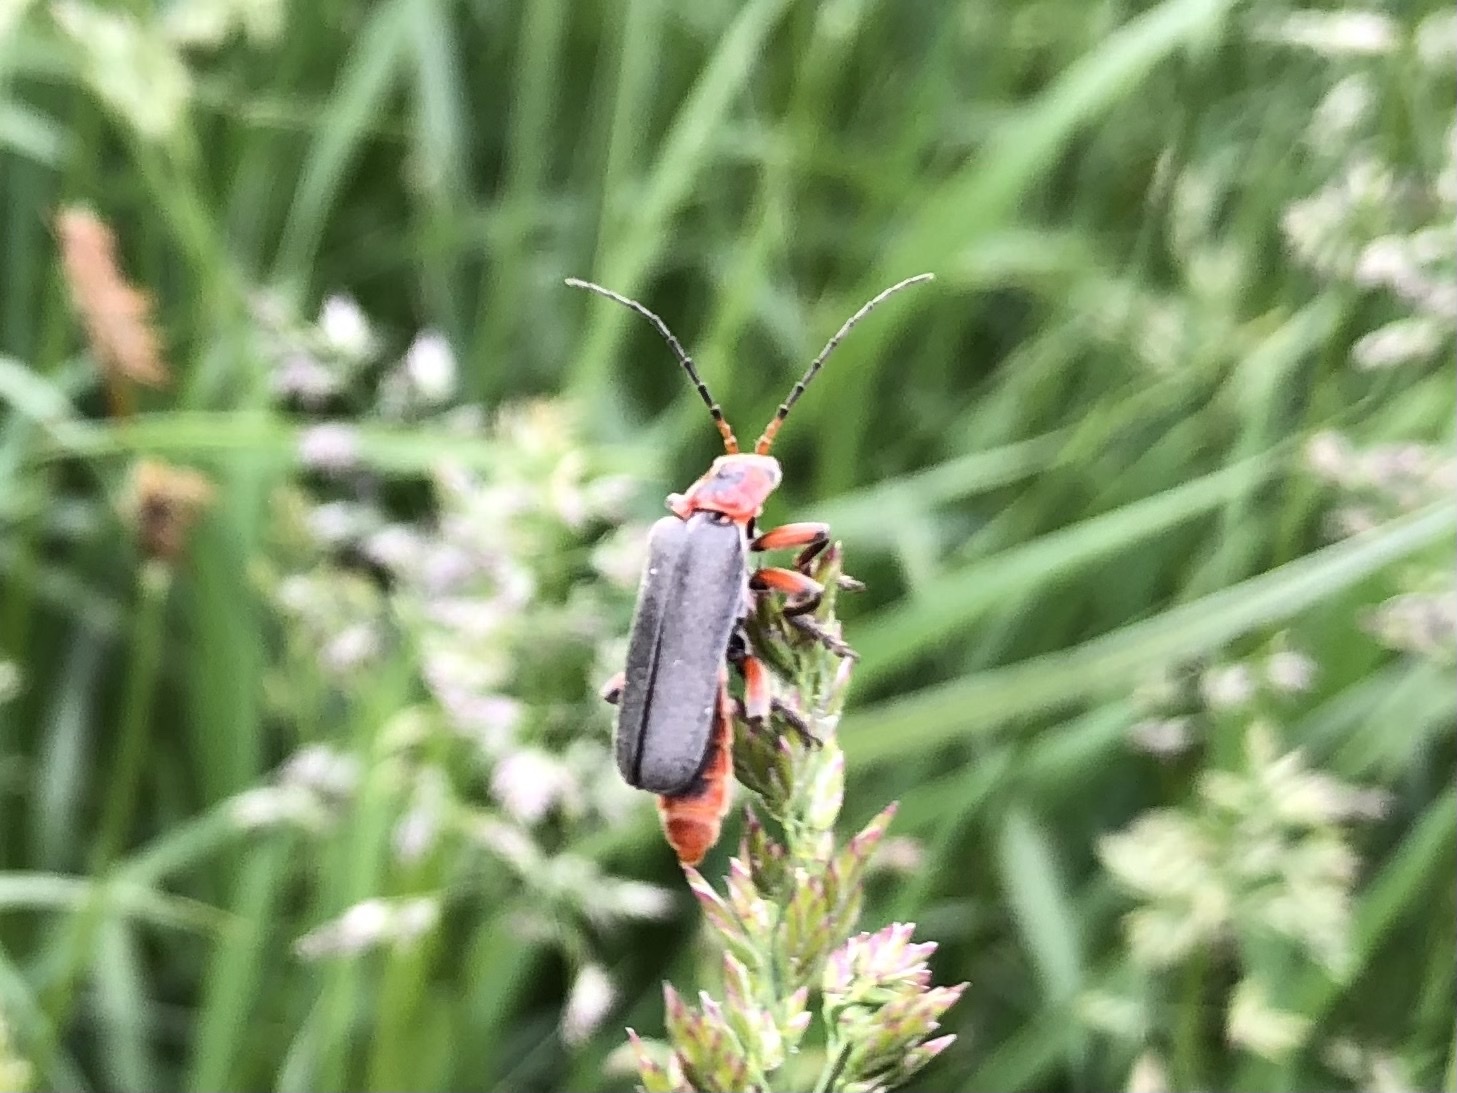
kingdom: Animalia
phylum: Arthropoda
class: Insecta
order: Coleoptera
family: Cantharidae
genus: Cantharis
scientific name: Cantharis rustica
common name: Soldier beetle
